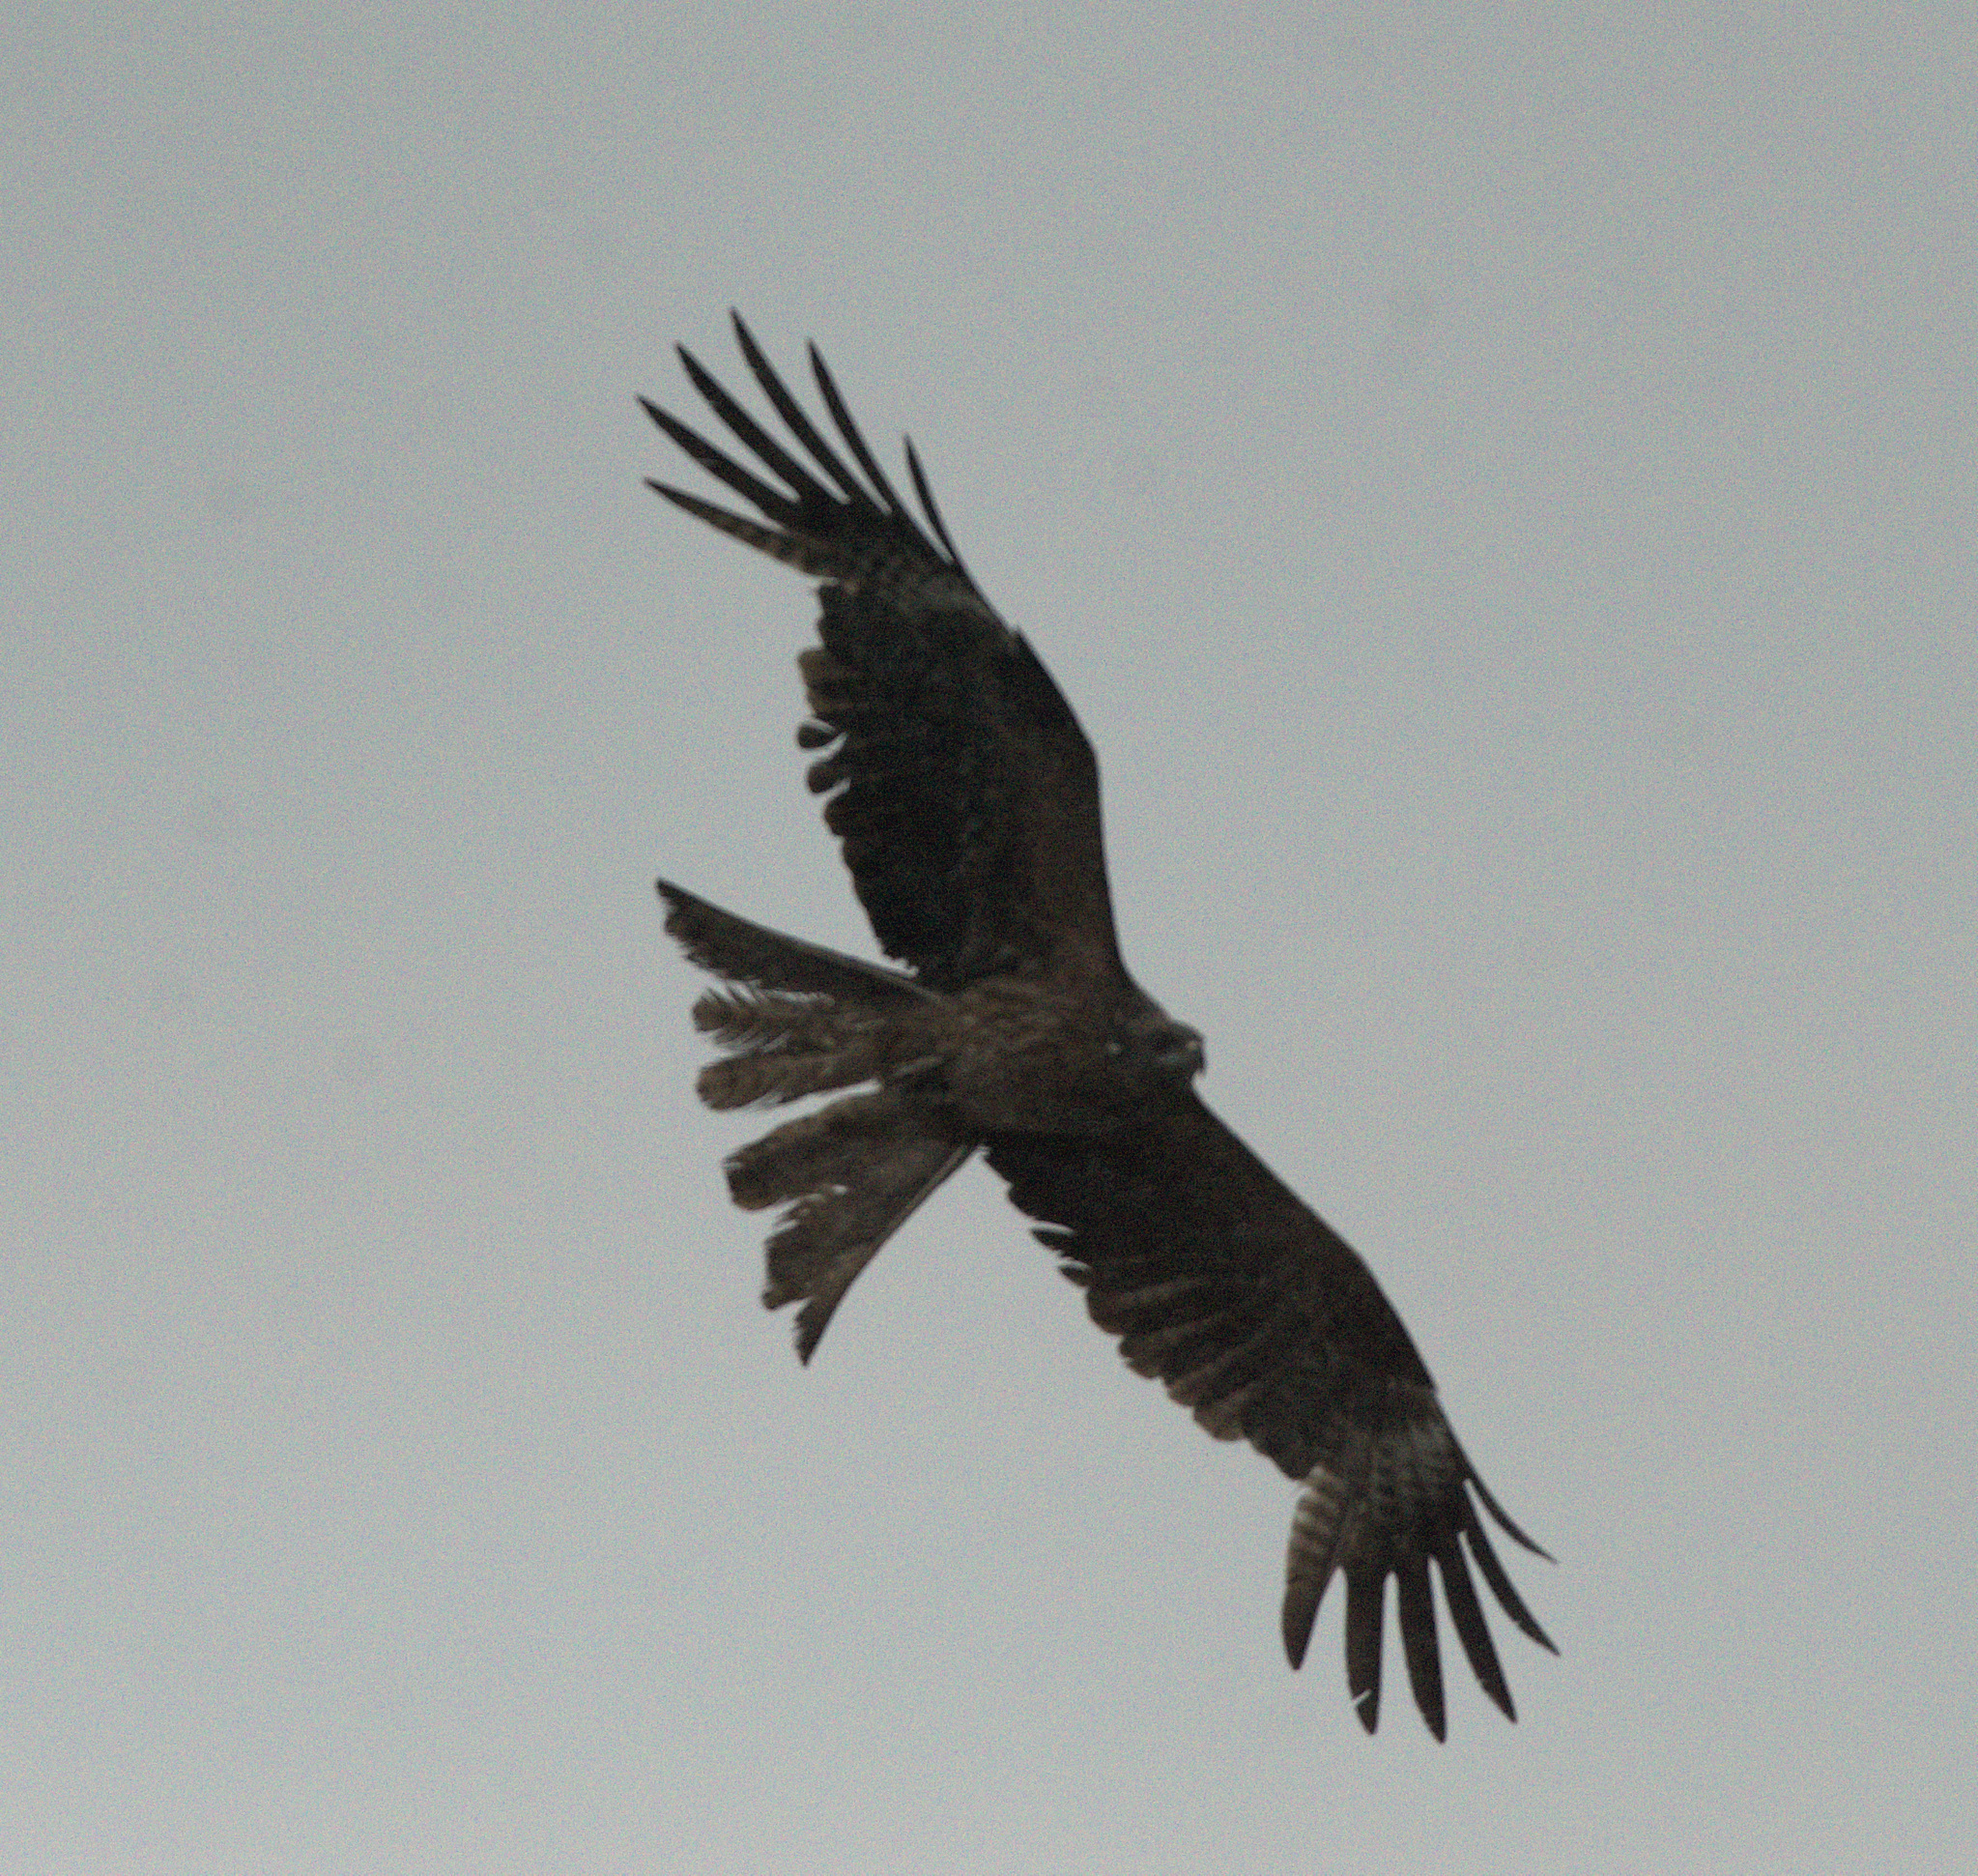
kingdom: Animalia
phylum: Chordata
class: Aves
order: Accipitriformes
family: Accipitridae
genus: Milvus
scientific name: Milvus migrans
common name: Black kite
